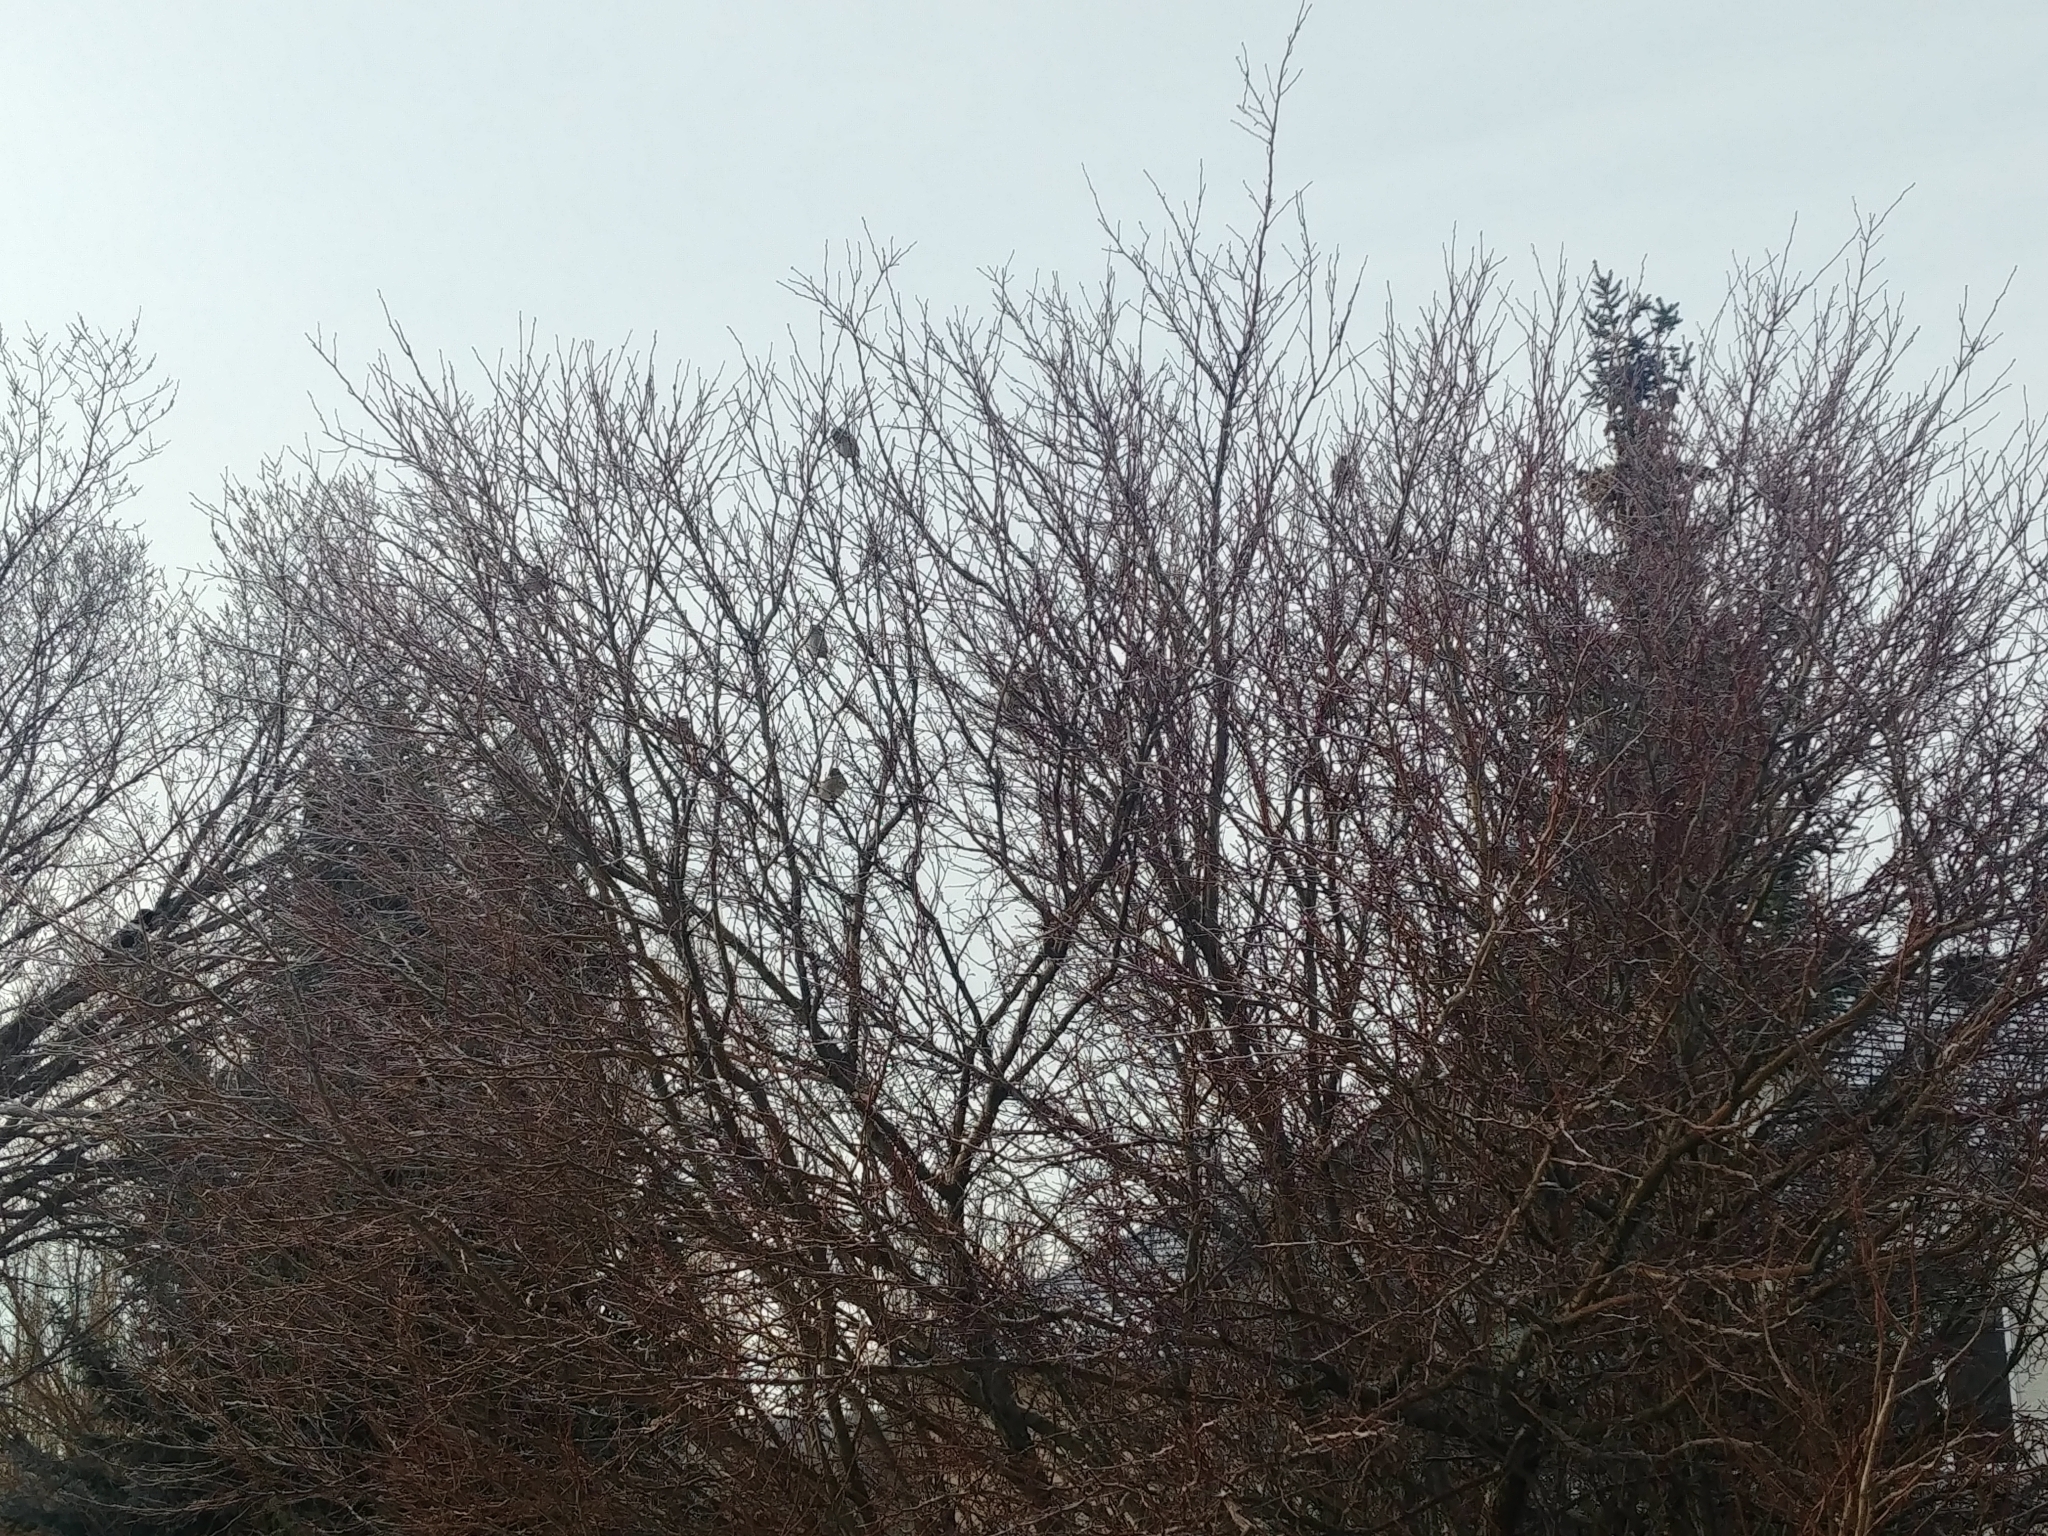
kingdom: Animalia
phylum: Chordata
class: Aves
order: Passeriformes
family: Passeridae
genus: Passer
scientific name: Passer domesticus
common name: House sparrow
